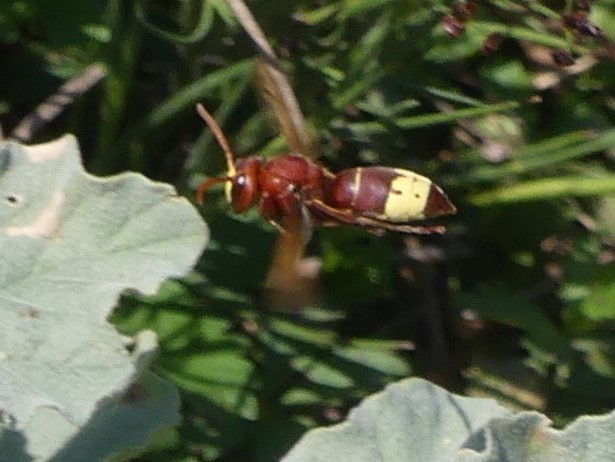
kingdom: Animalia
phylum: Arthropoda
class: Insecta
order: Hymenoptera
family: Vespidae
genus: Vespa
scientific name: Vespa orientalis
